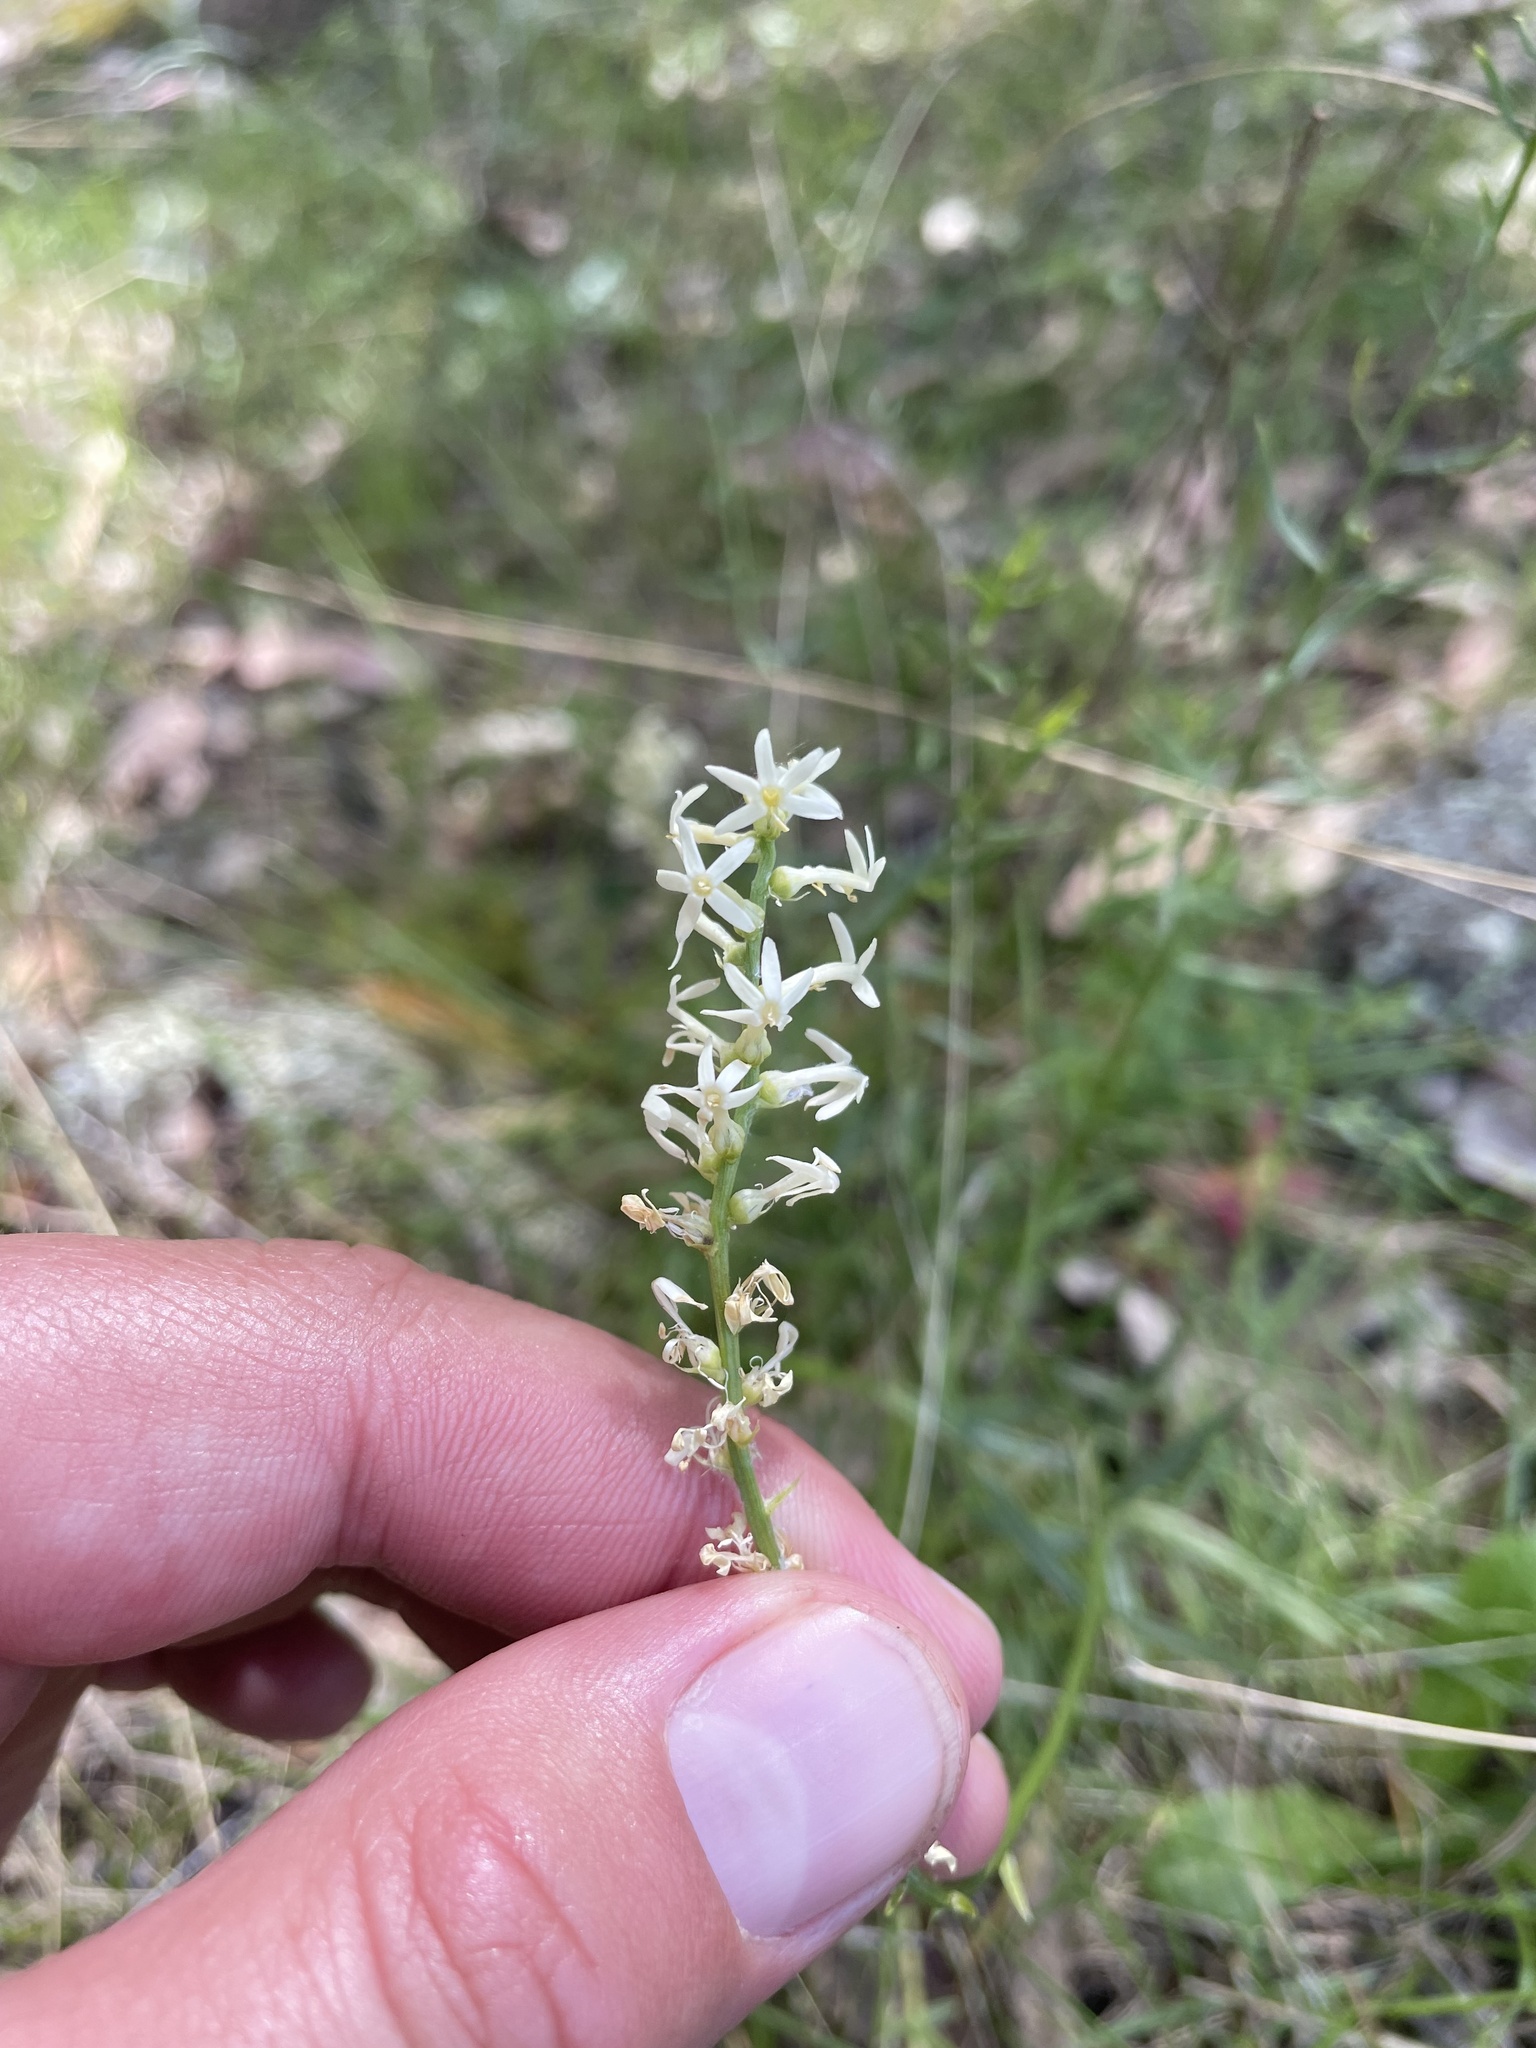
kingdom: Plantae
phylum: Tracheophyta
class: Magnoliopsida
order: Celastrales
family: Celastraceae
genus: Stackhousia
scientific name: Stackhousia monogyna
